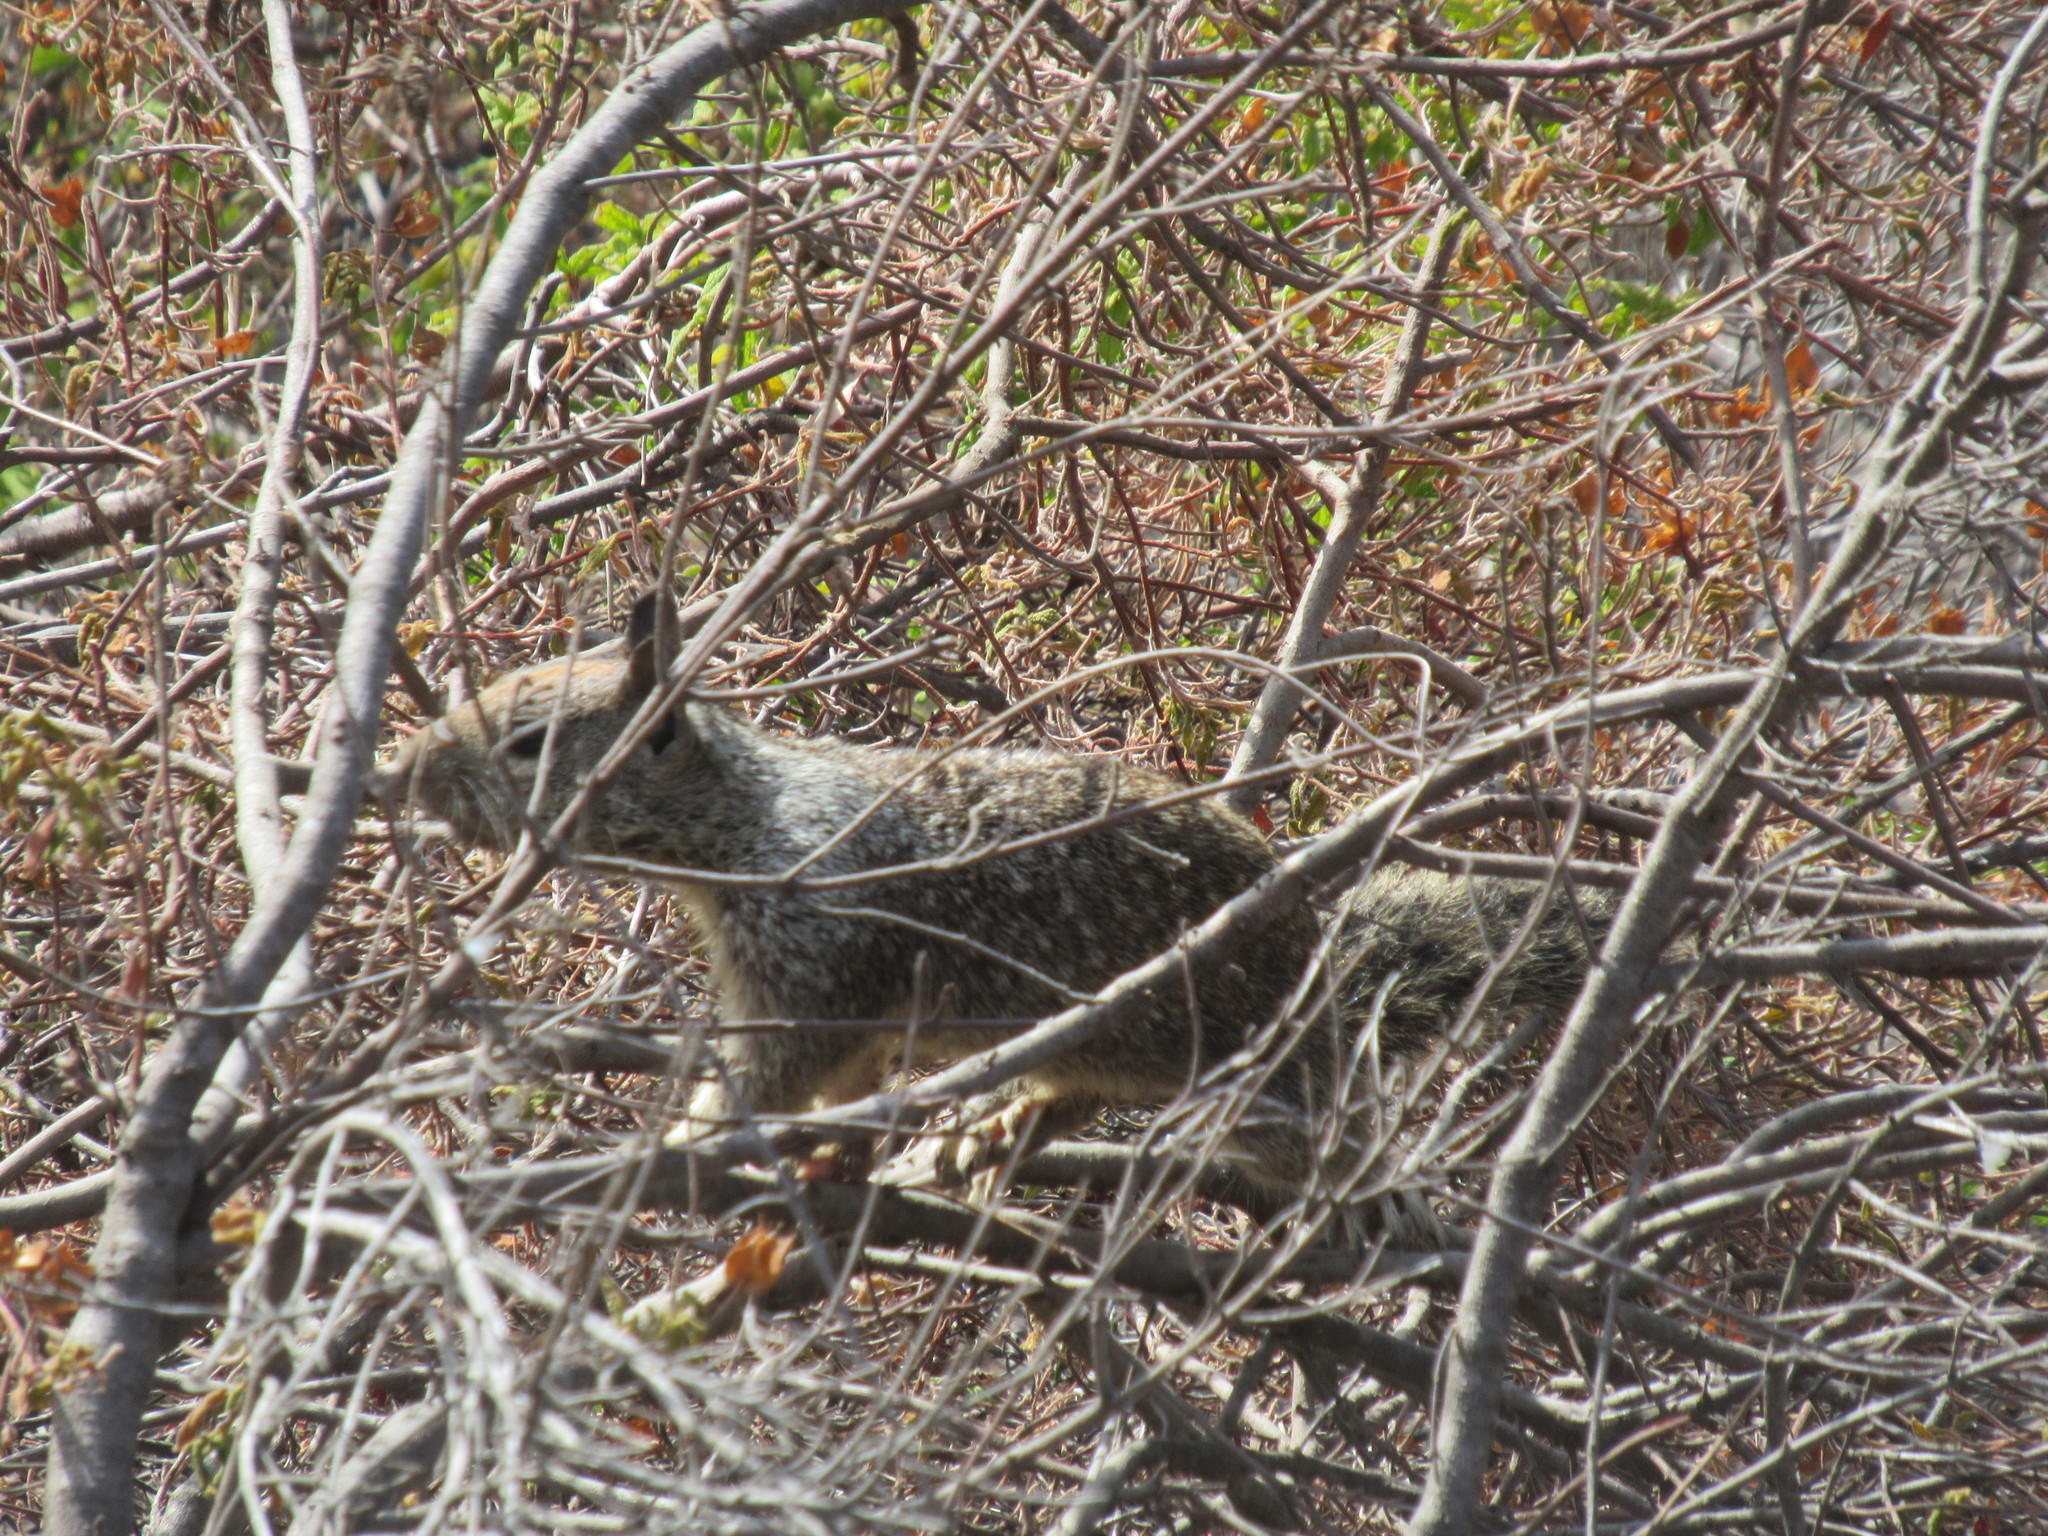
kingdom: Animalia
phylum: Chordata
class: Mammalia
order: Rodentia
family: Sciuridae
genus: Otospermophilus
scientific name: Otospermophilus beecheyi
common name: California ground squirrel
